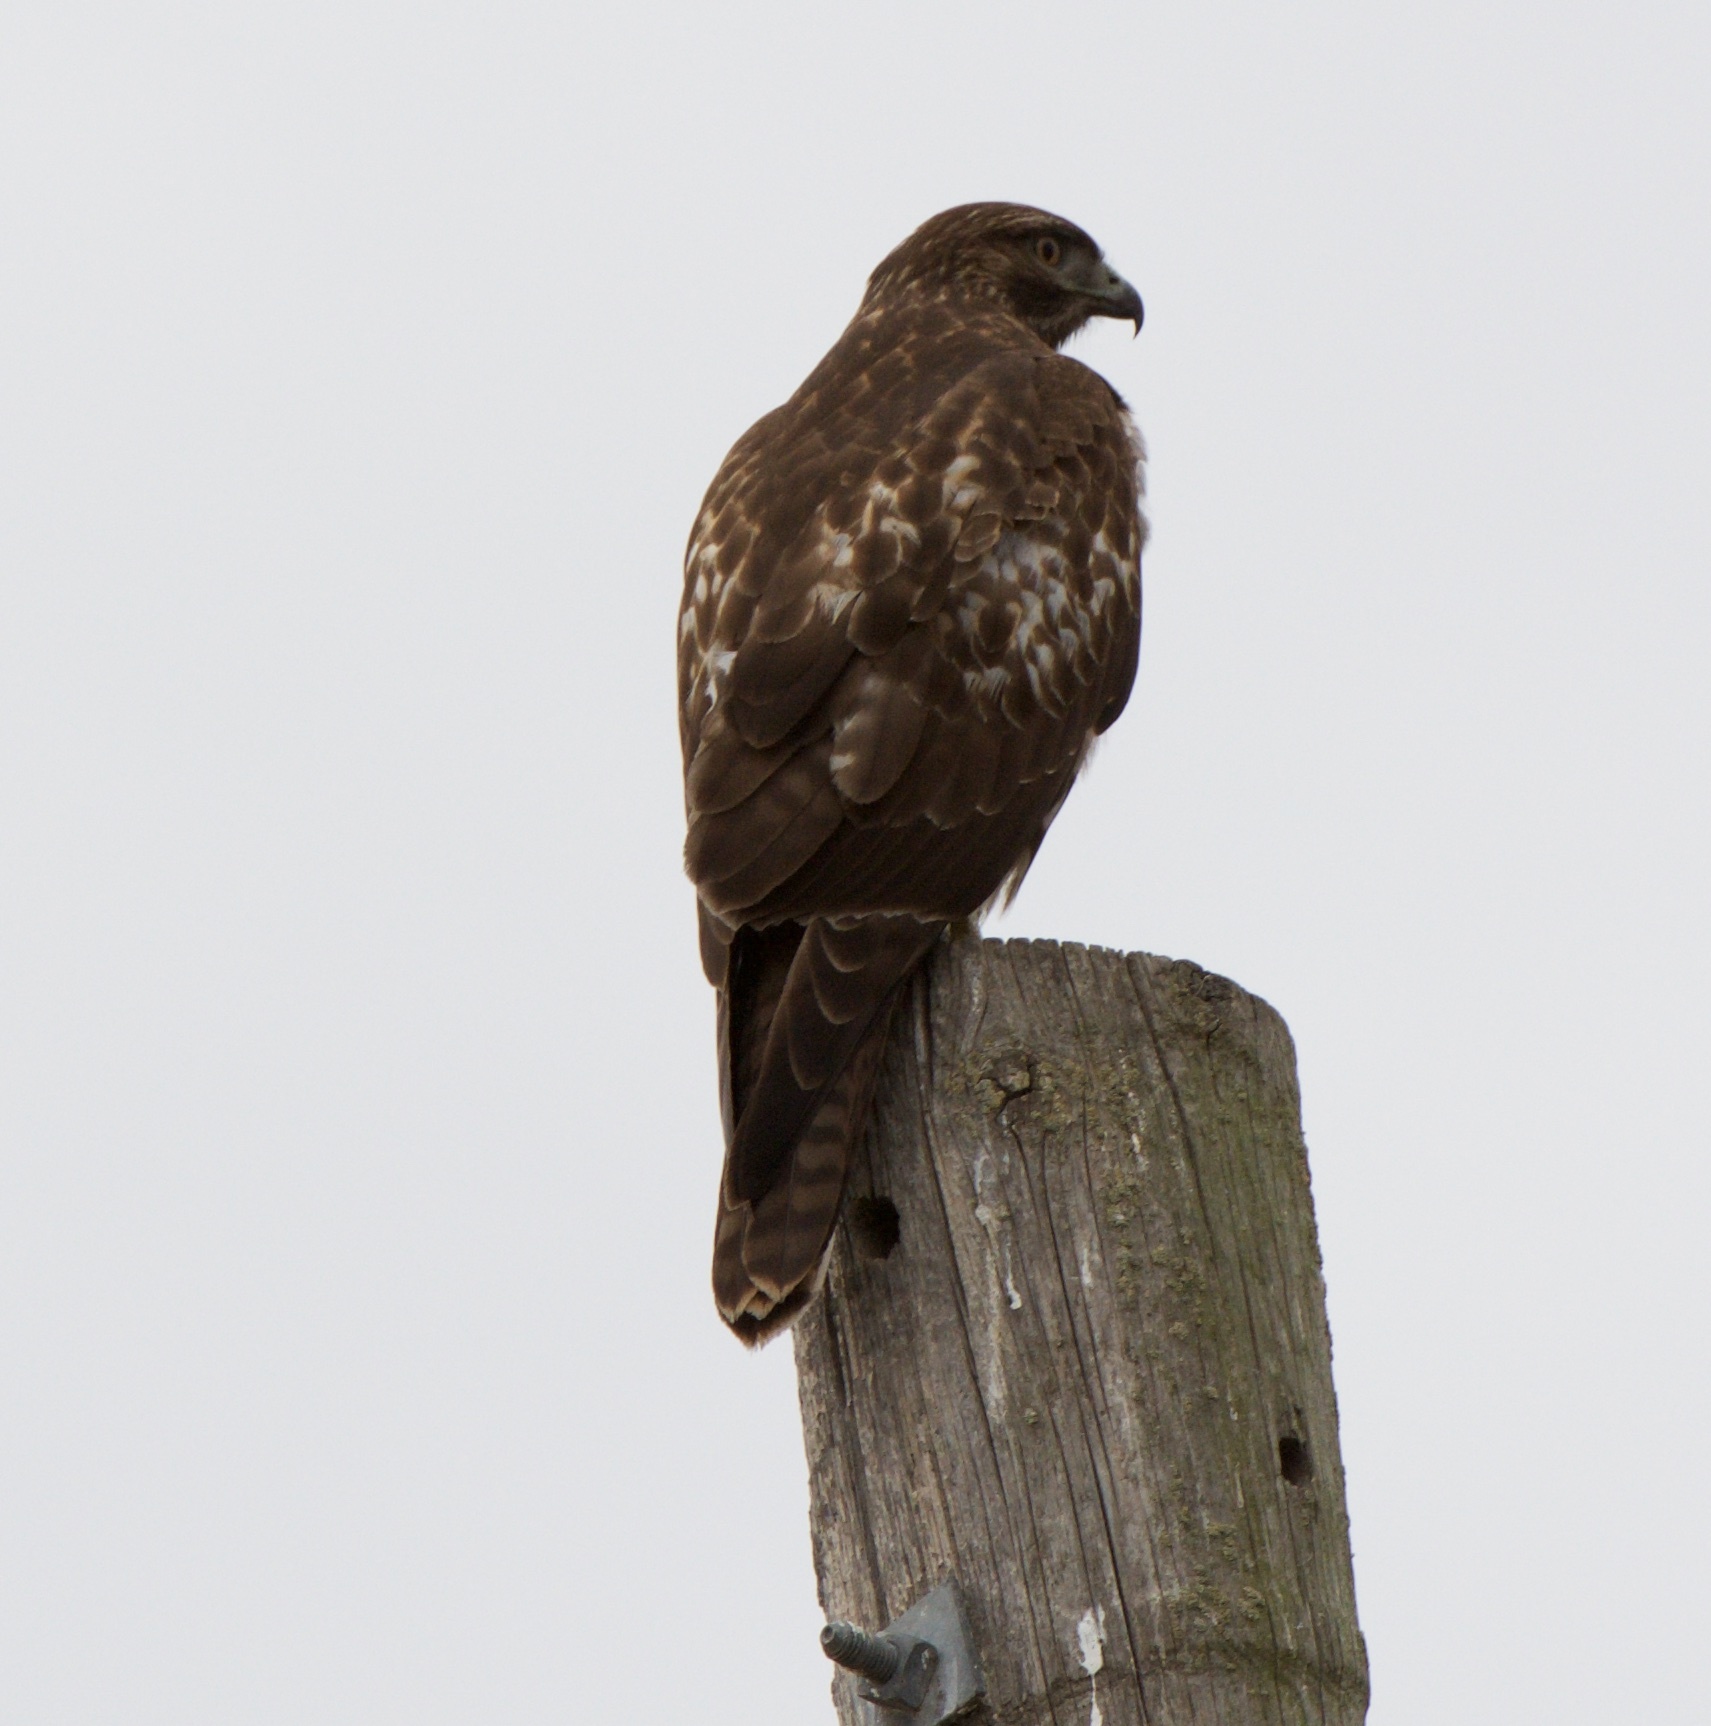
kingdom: Animalia
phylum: Chordata
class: Aves
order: Accipitriformes
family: Accipitridae
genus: Buteo
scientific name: Buteo jamaicensis
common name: Red-tailed hawk
